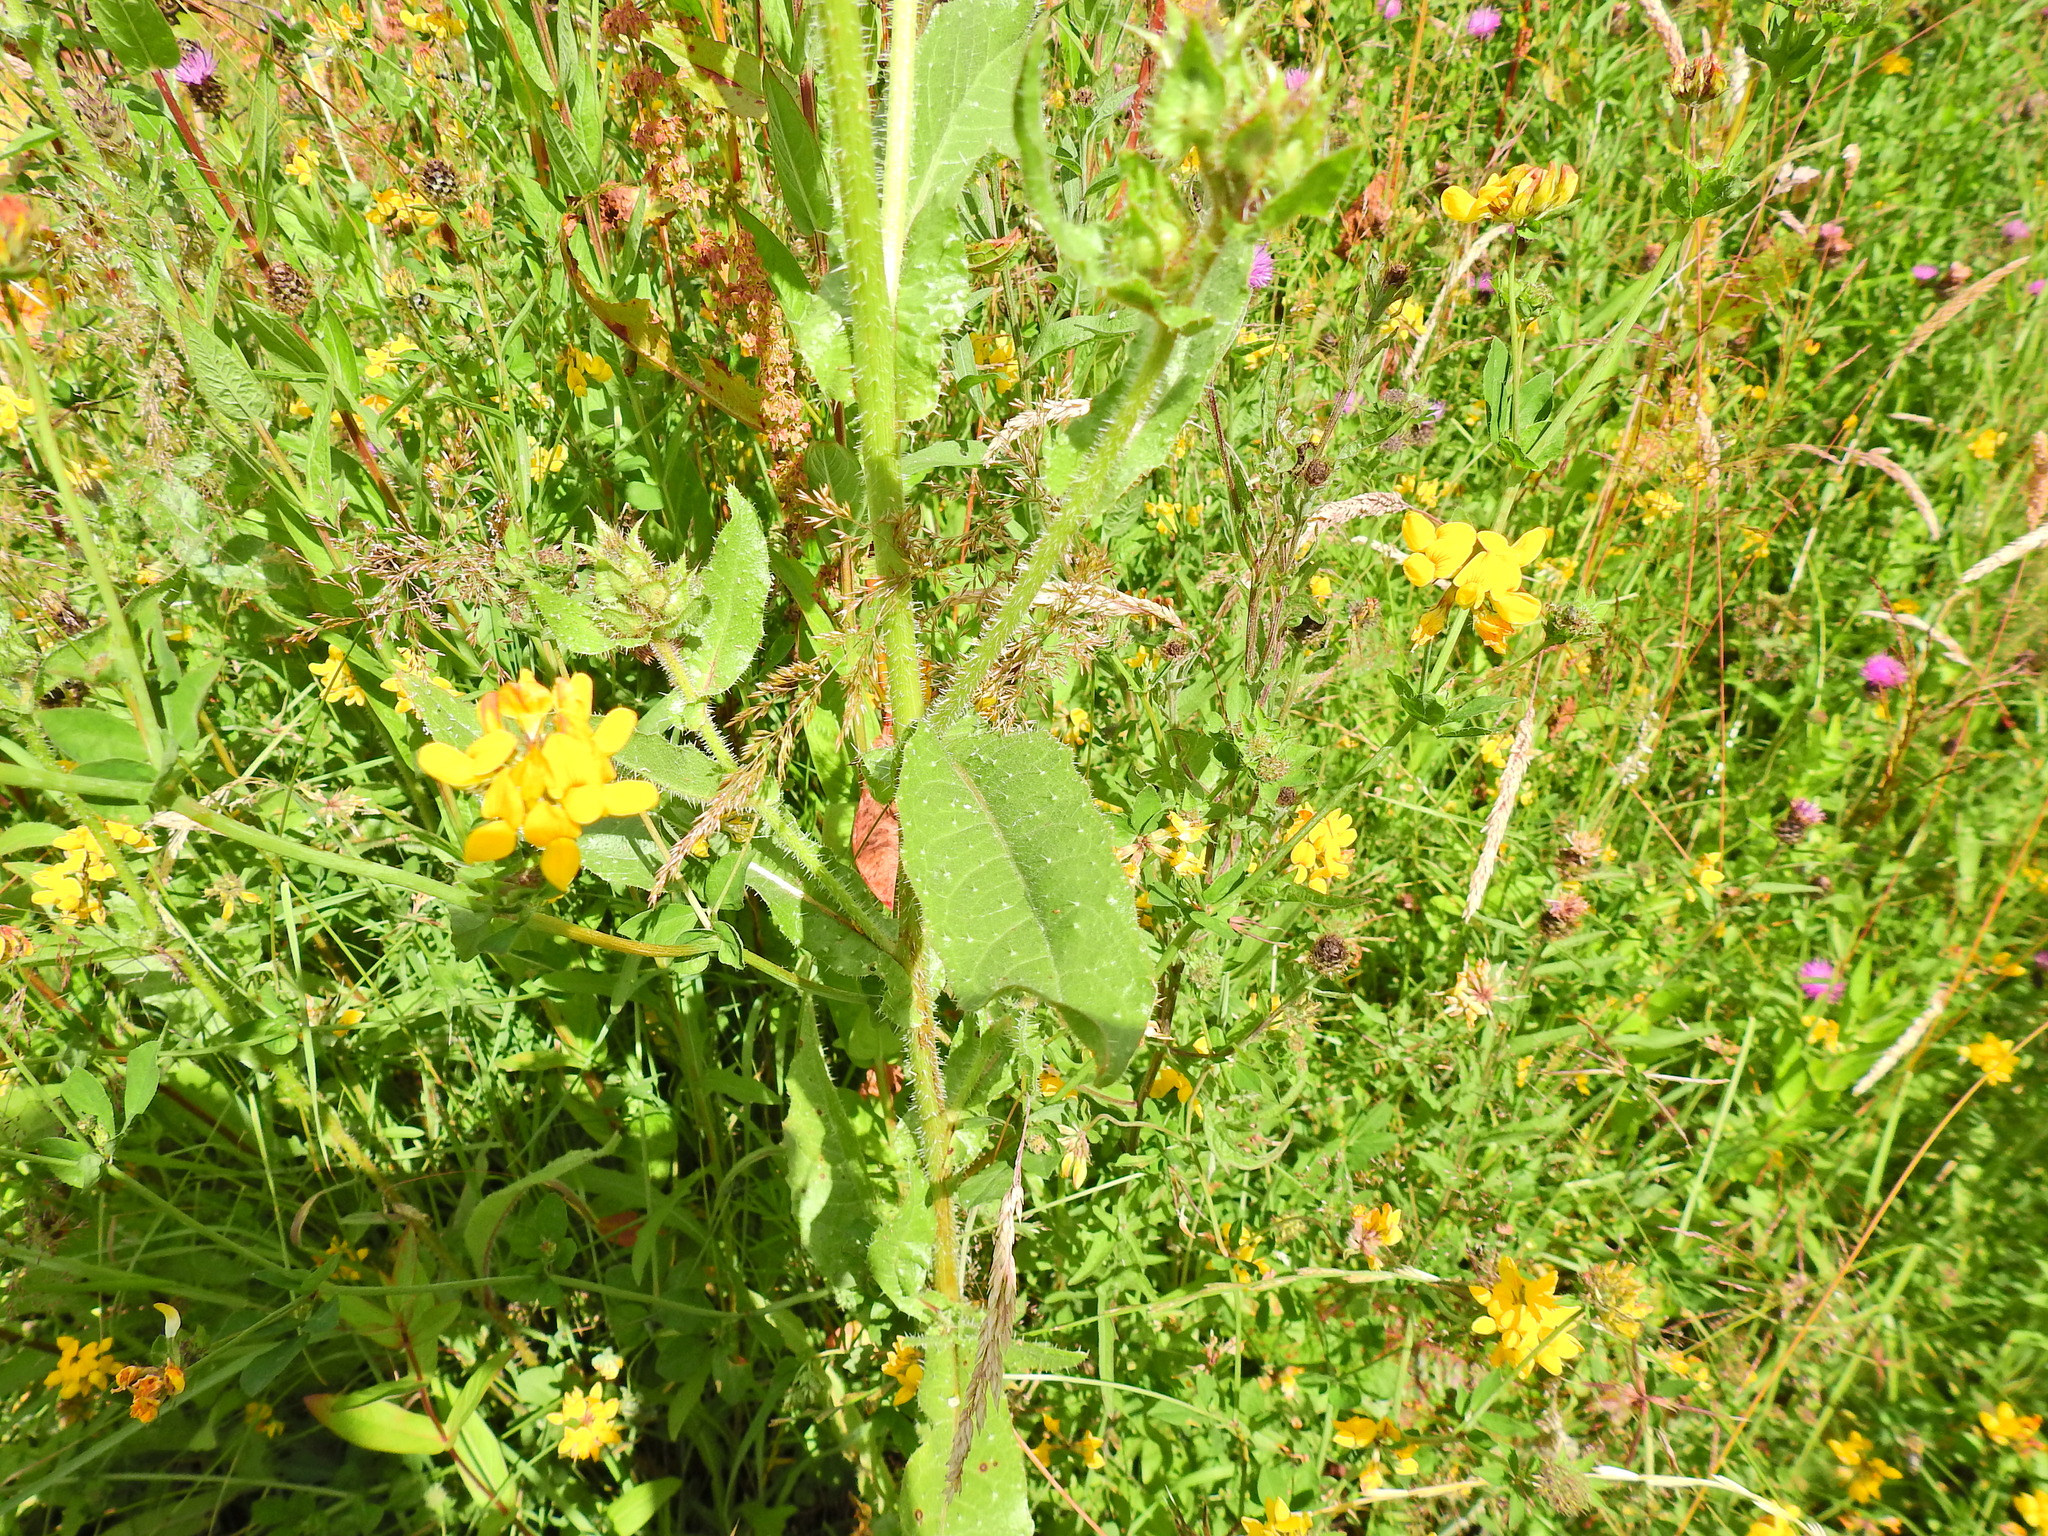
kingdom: Plantae
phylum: Tracheophyta
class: Magnoliopsida
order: Asterales
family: Asteraceae
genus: Helminthotheca
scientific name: Helminthotheca echioides
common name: Ox-tongue
